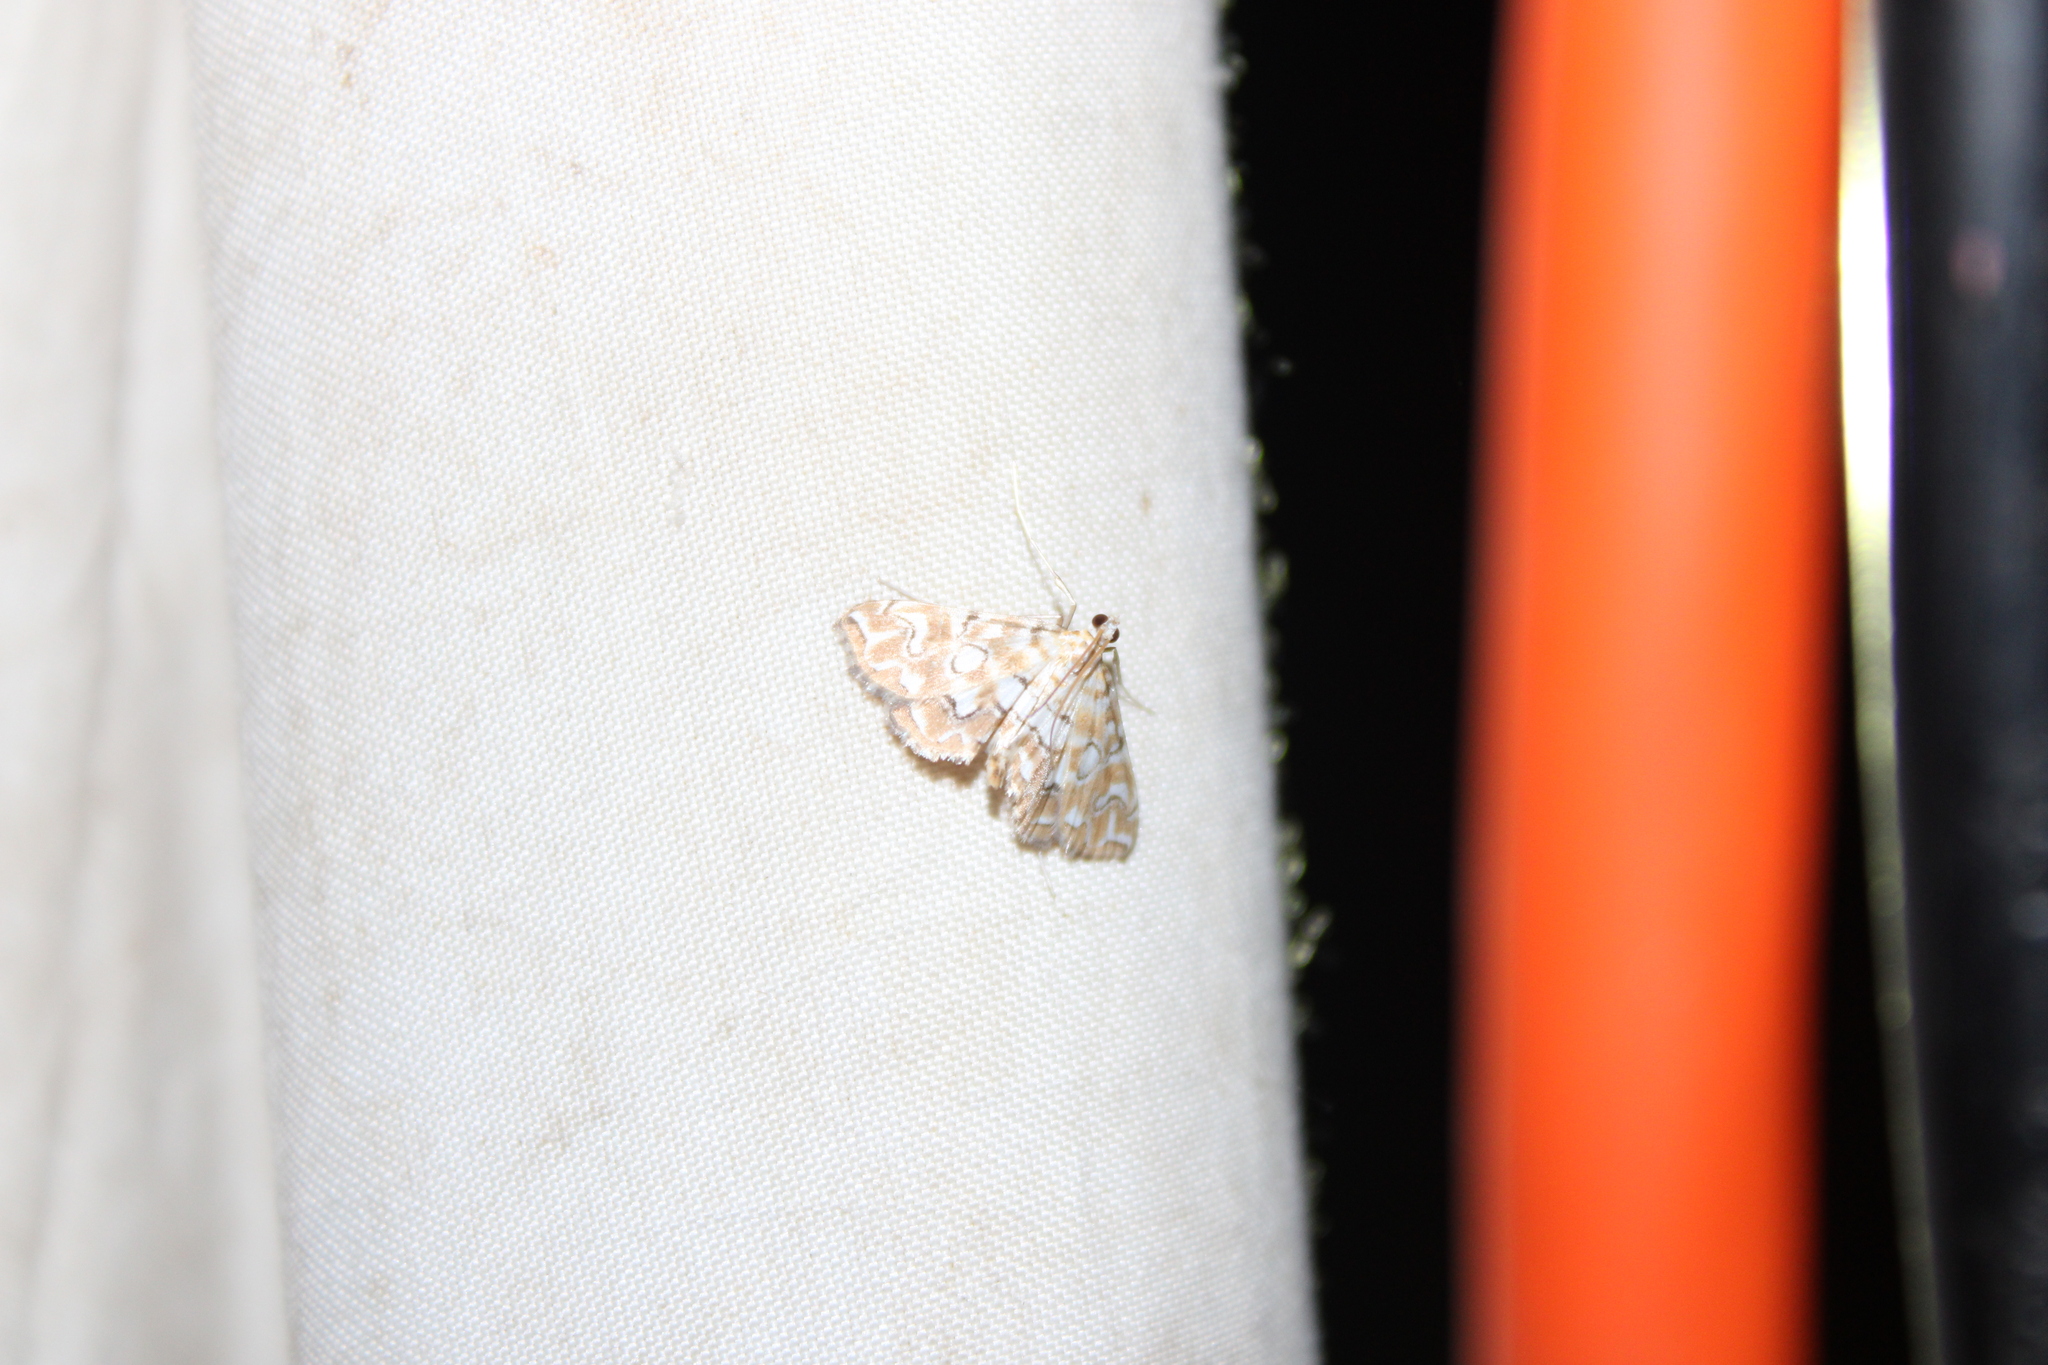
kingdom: Animalia
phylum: Arthropoda
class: Insecta
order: Lepidoptera
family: Crambidae
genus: Elophila
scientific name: Elophila icciusalis
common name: Pondside pyralid moth
